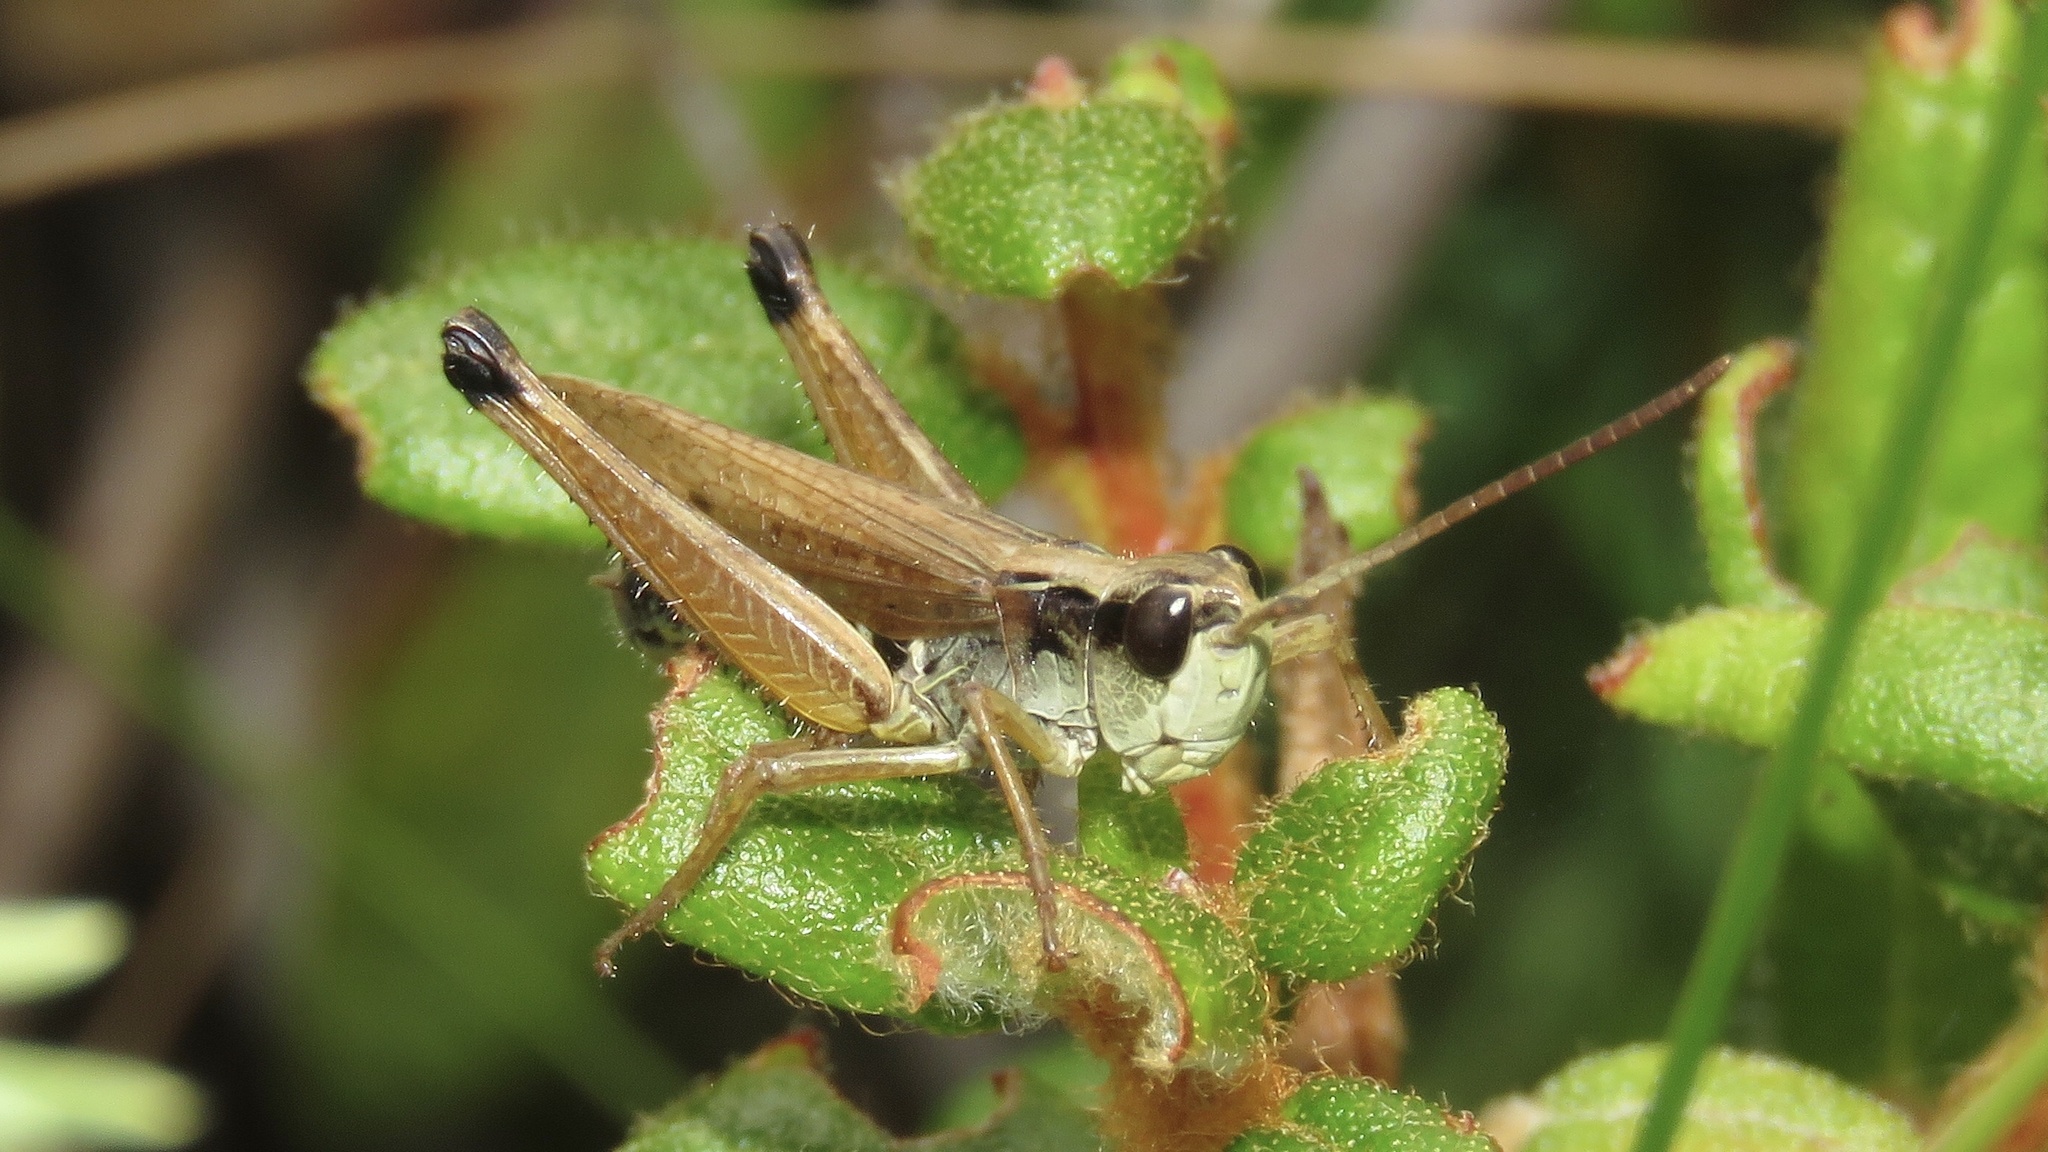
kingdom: Animalia
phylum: Arthropoda
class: Insecta
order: Orthoptera
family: Acrididae
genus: Pseudochorthippus
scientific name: Pseudochorthippus curtipennis
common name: Marsh meadow grasshopper
